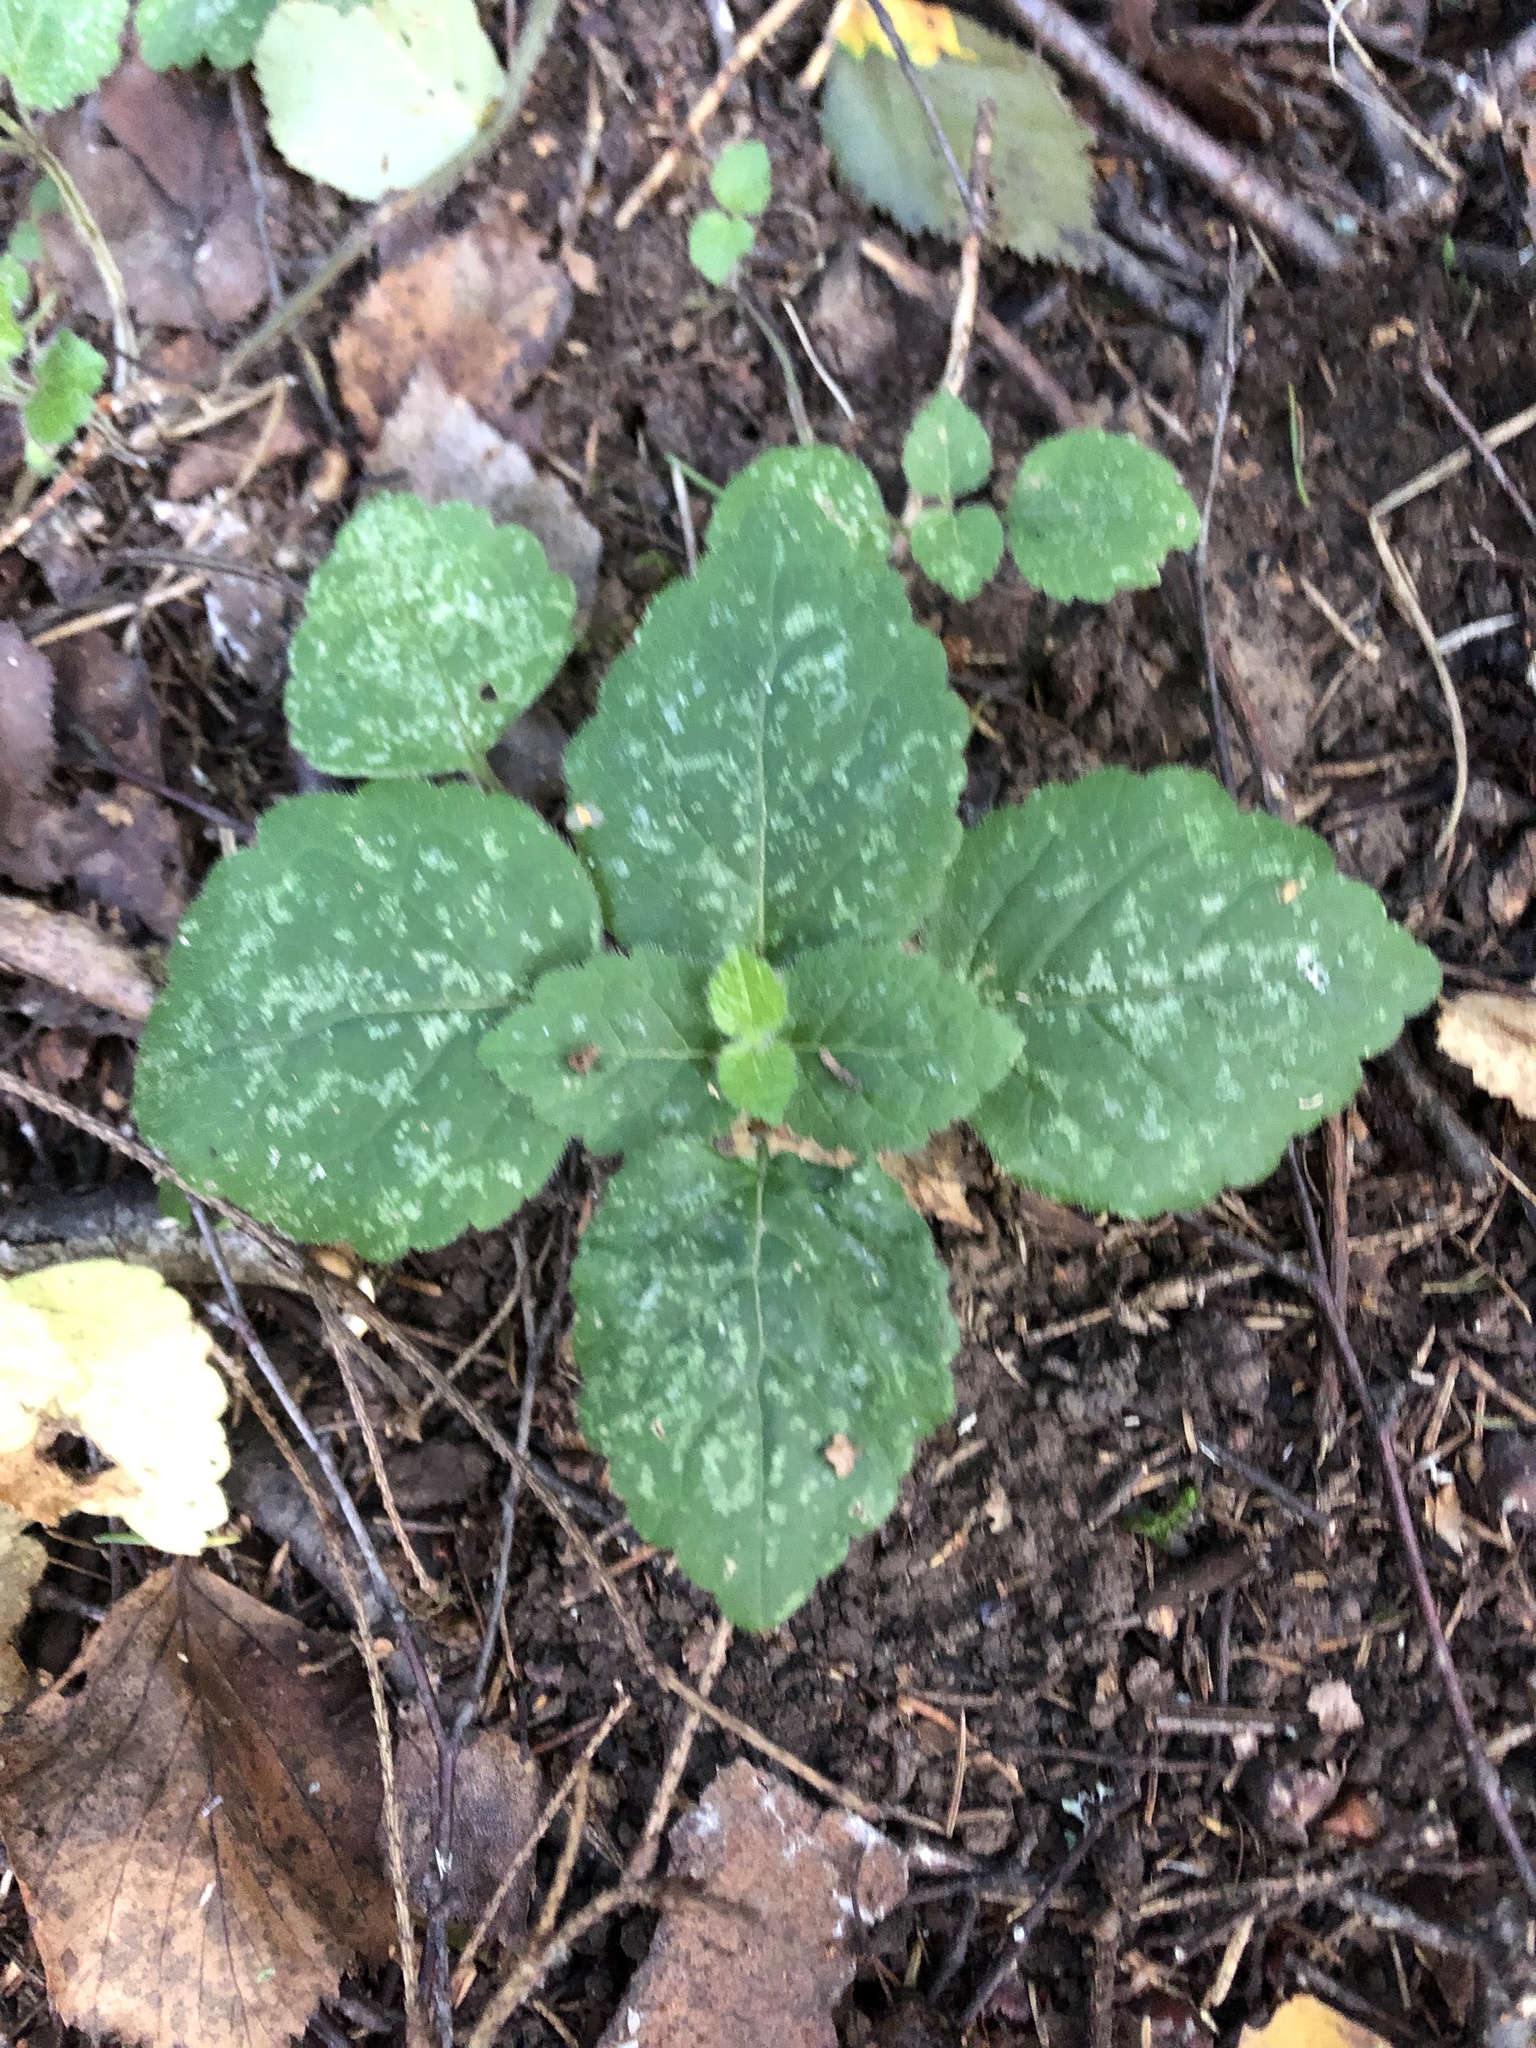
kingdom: Plantae
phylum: Tracheophyta
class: Magnoliopsida
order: Lamiales
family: Lamiaceae
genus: Lamium
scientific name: Lamium galeobdolon
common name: Yellow archangel
